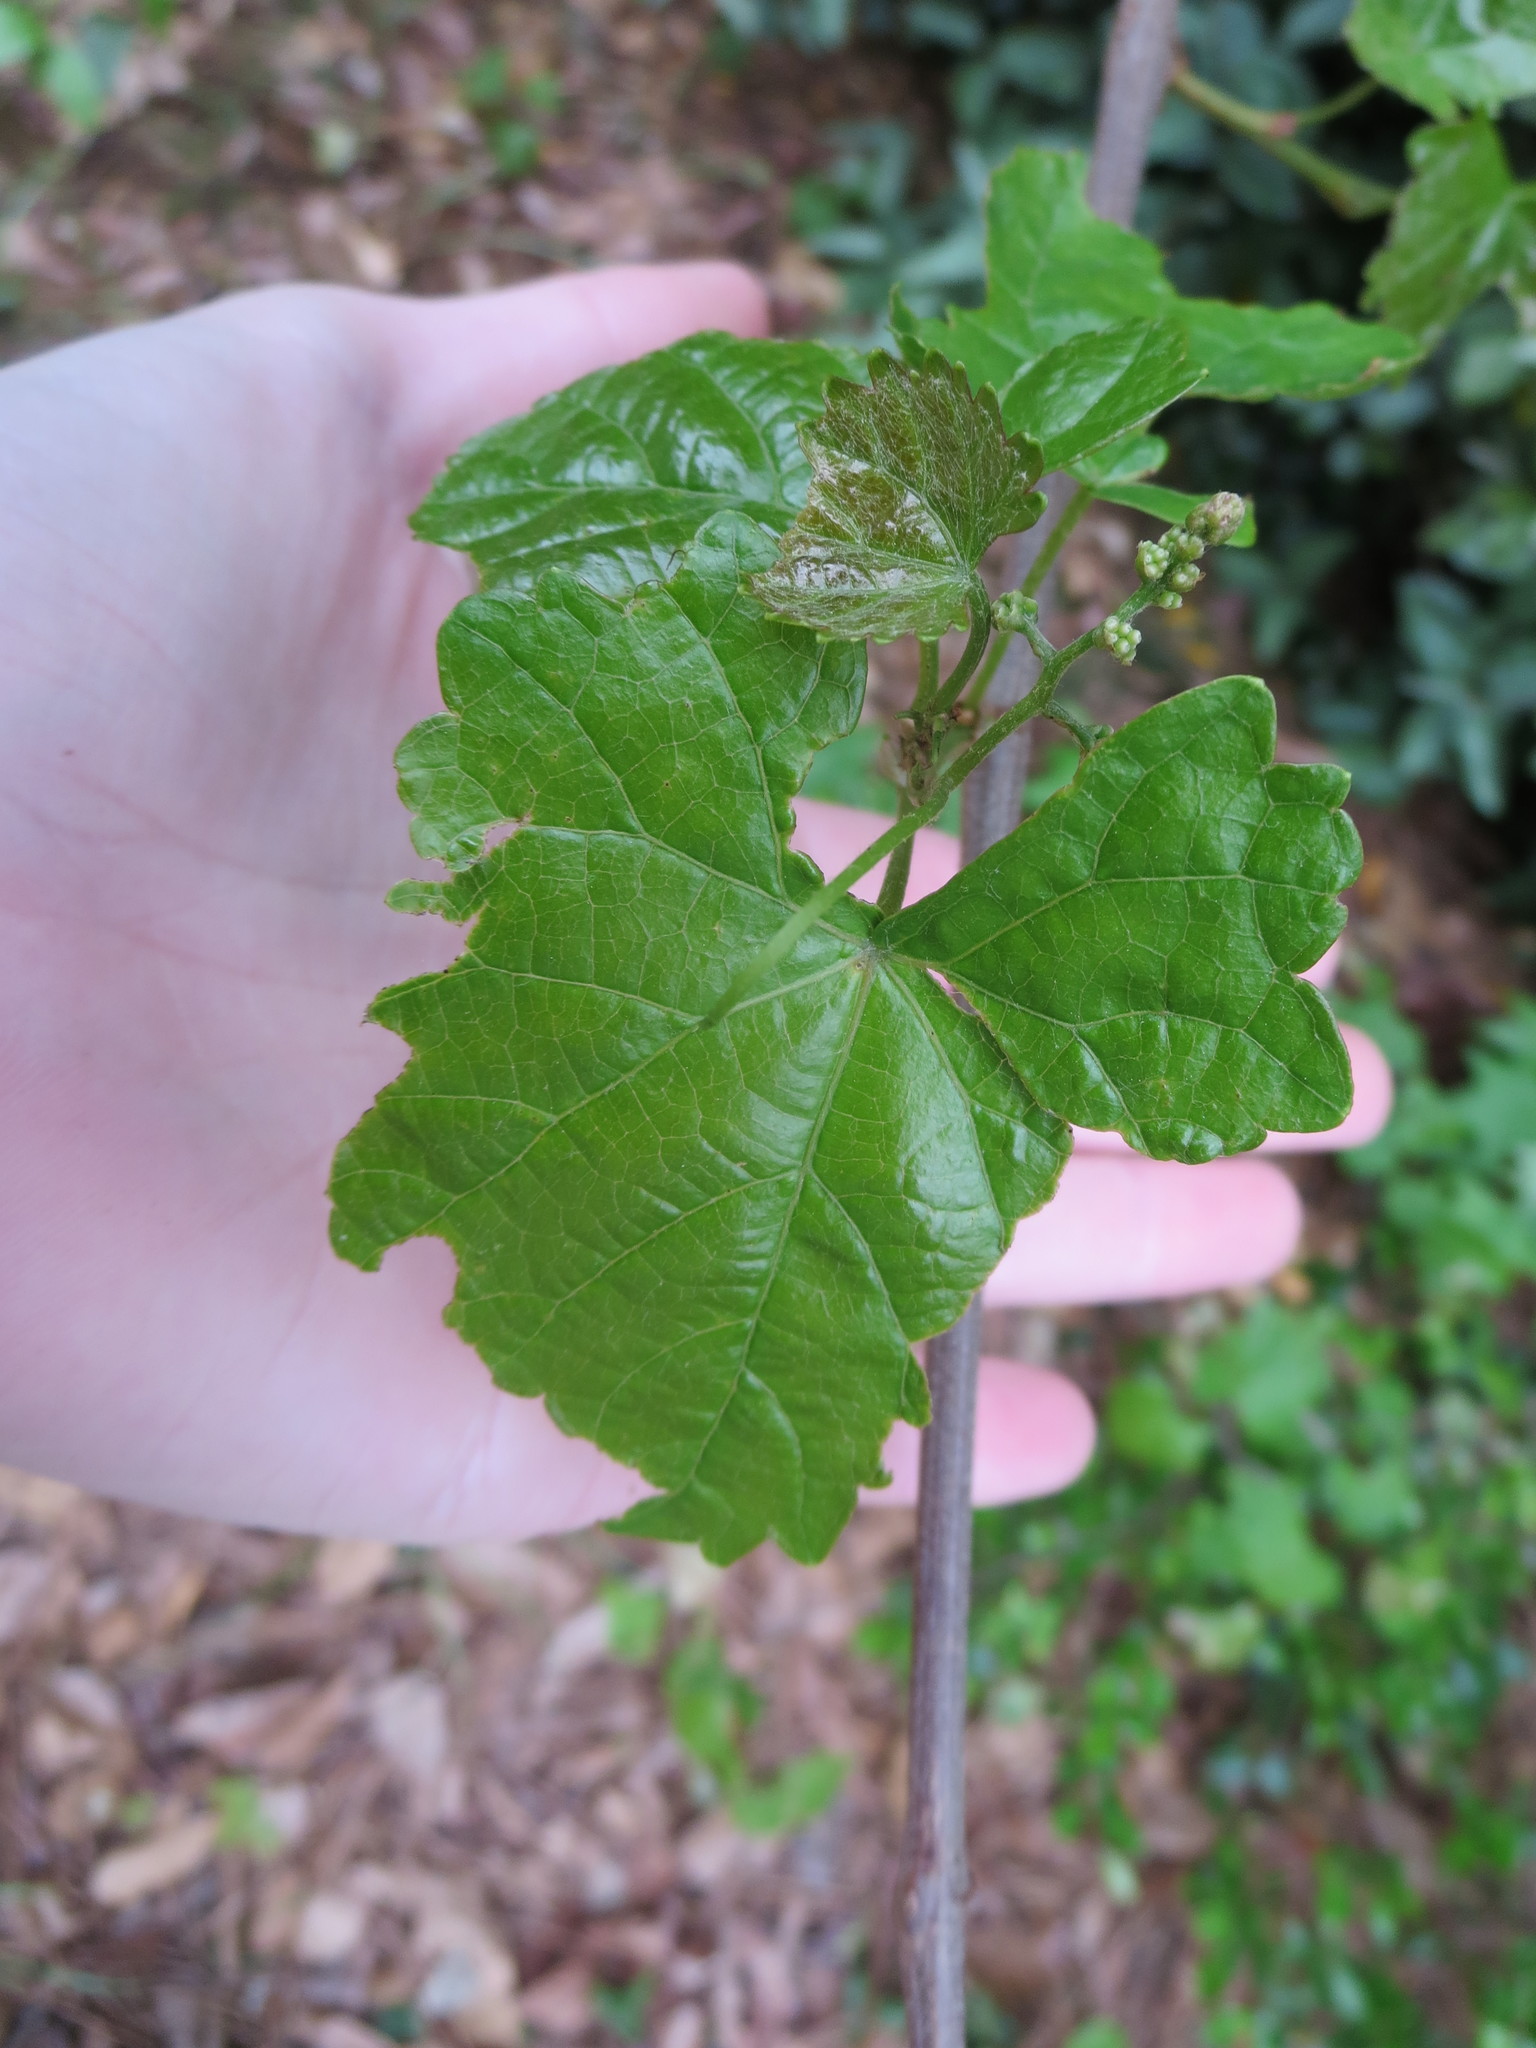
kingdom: Plantae
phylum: Tracheophyta
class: Magnoliopsida
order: Vitales
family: Vitaceae
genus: Vitis
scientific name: Vitis rotundifolia
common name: Muscadine grape
